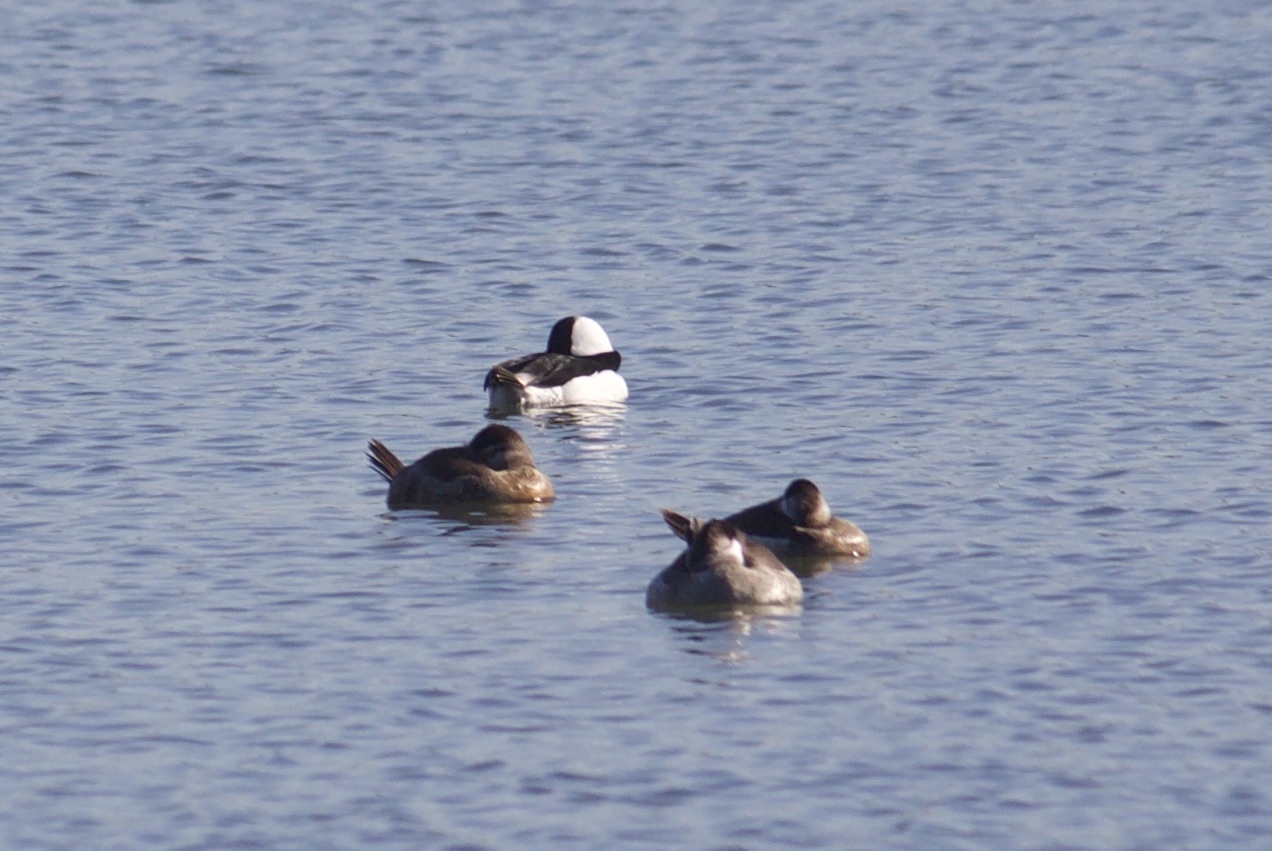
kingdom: Animalia
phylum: Chordata
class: Aves
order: Anseriformes
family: Anatidae
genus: Bucephala
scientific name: Bucephala albeola
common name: Bufflehead
